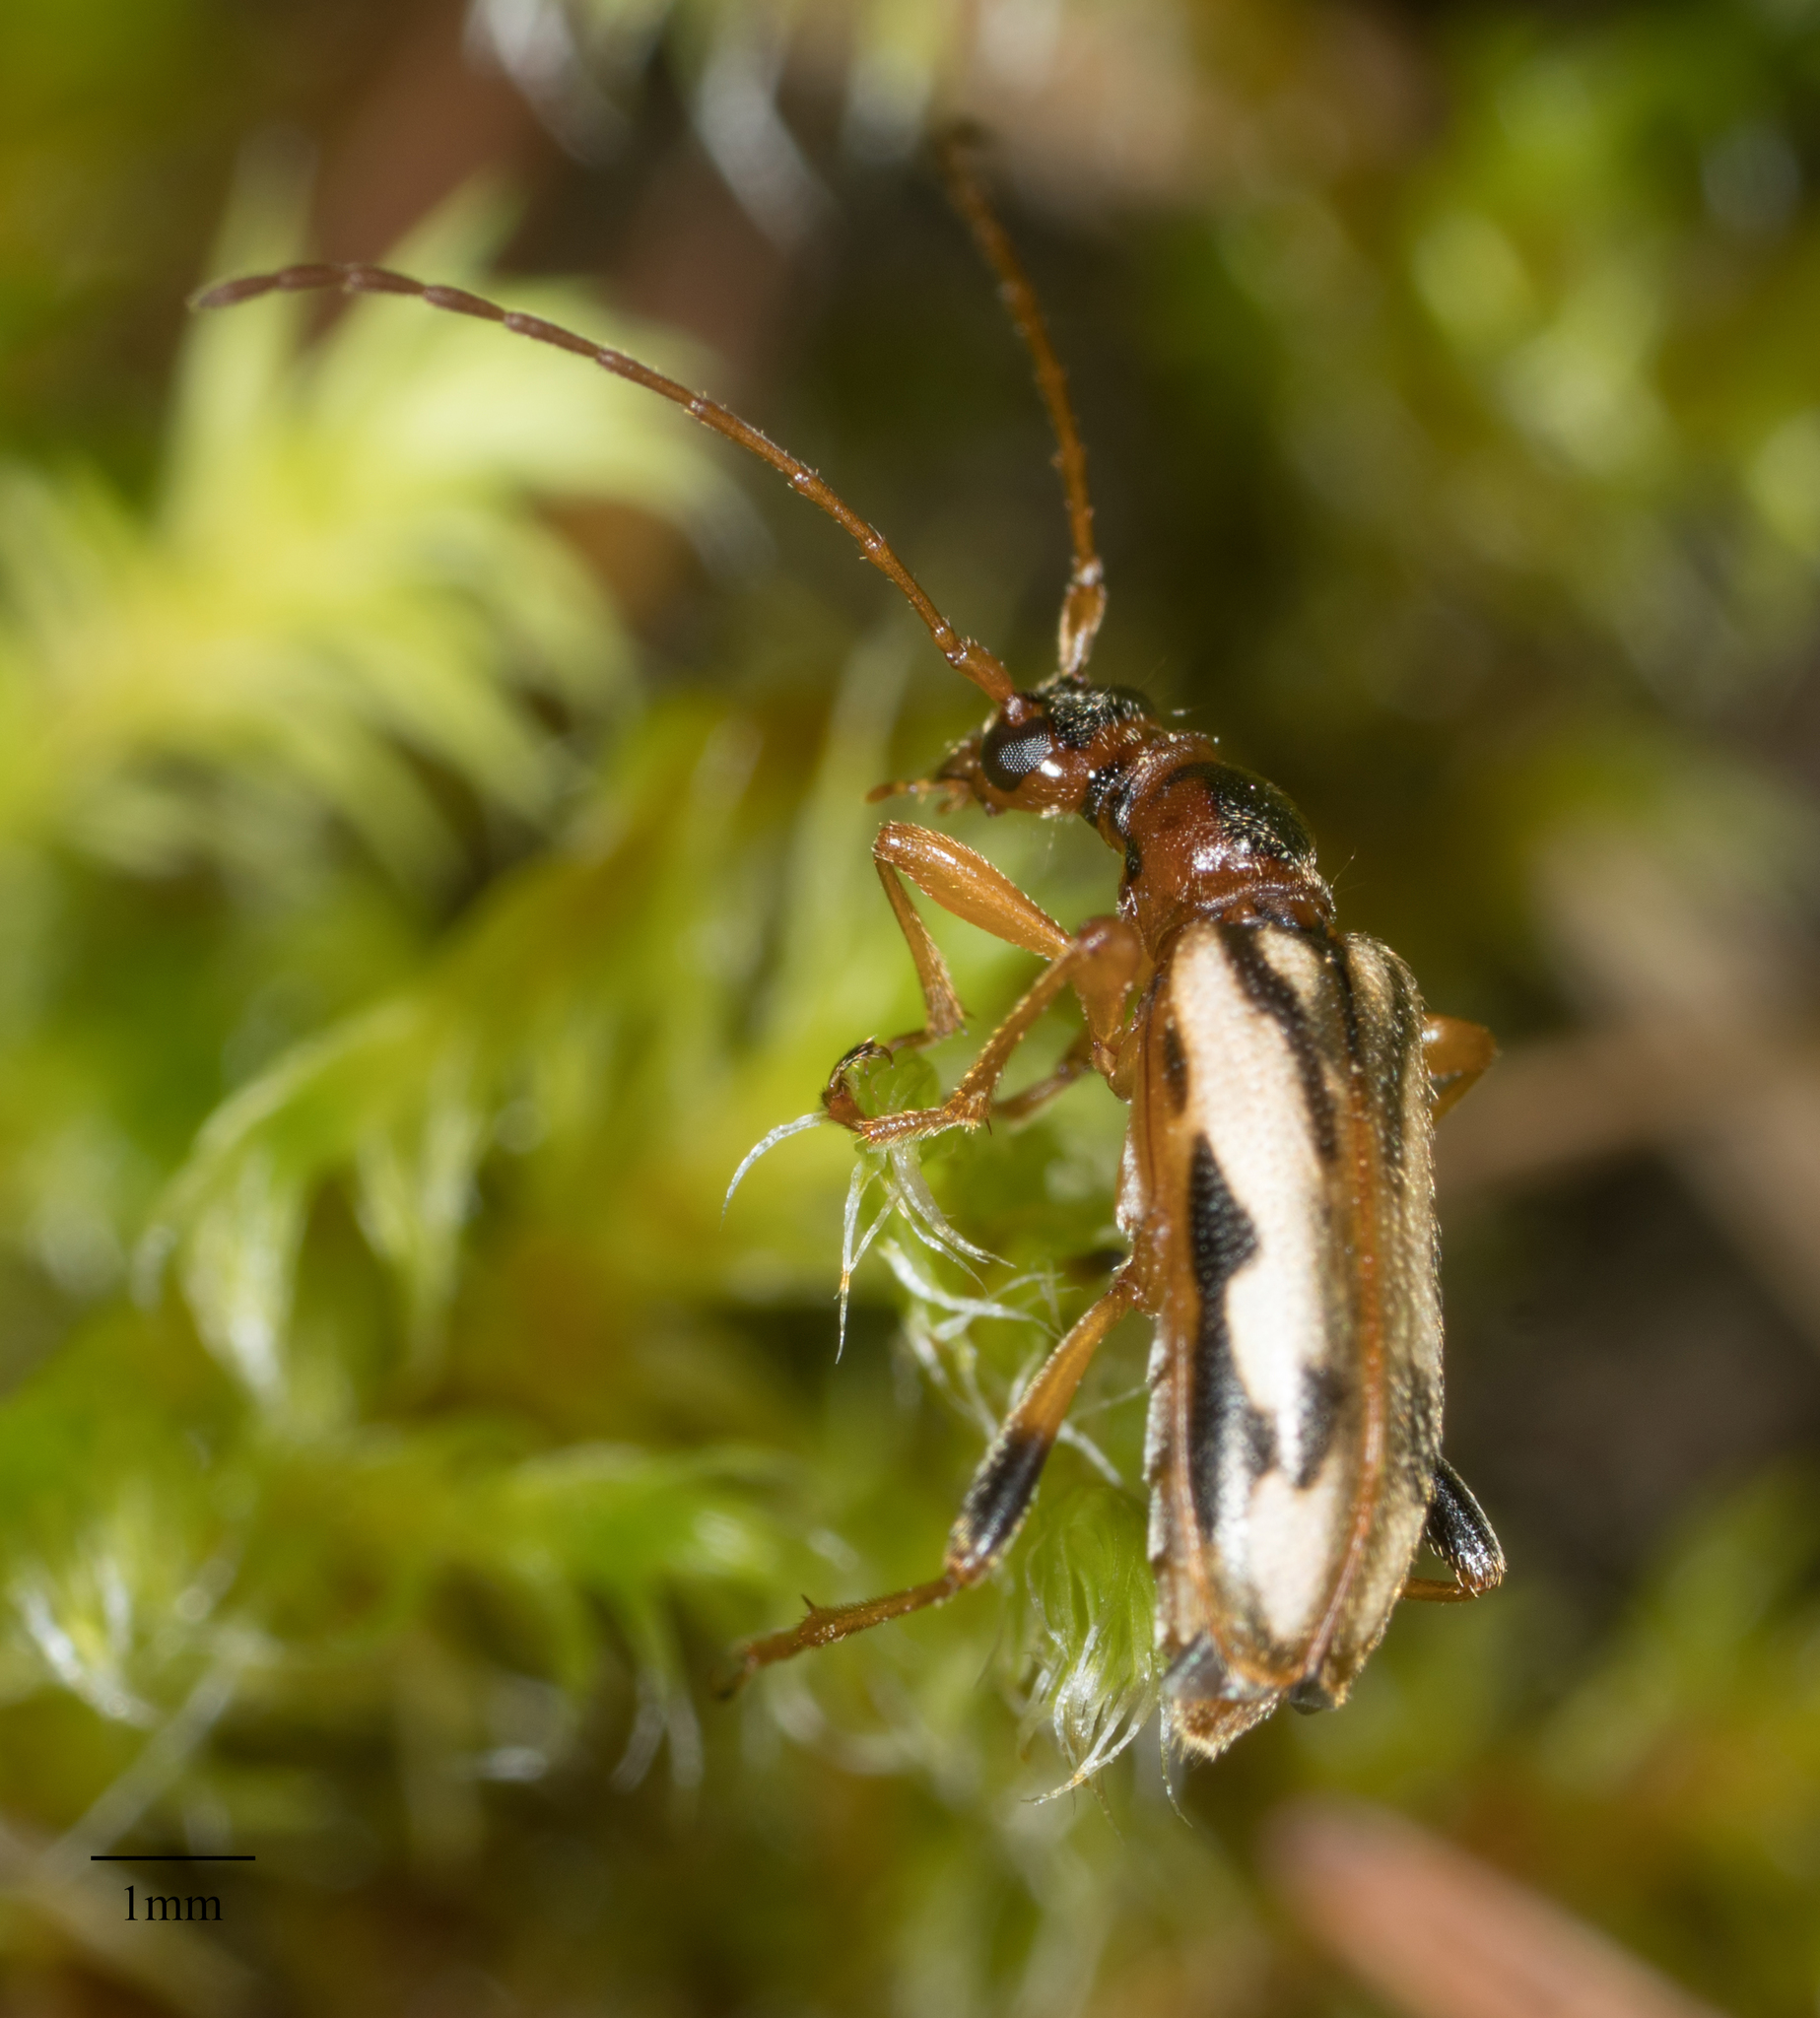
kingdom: Animalia
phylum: Arthropoda
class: Insecta
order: Coleoptera
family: Cerambycidae
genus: Pidonia
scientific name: Pidonia scripta
